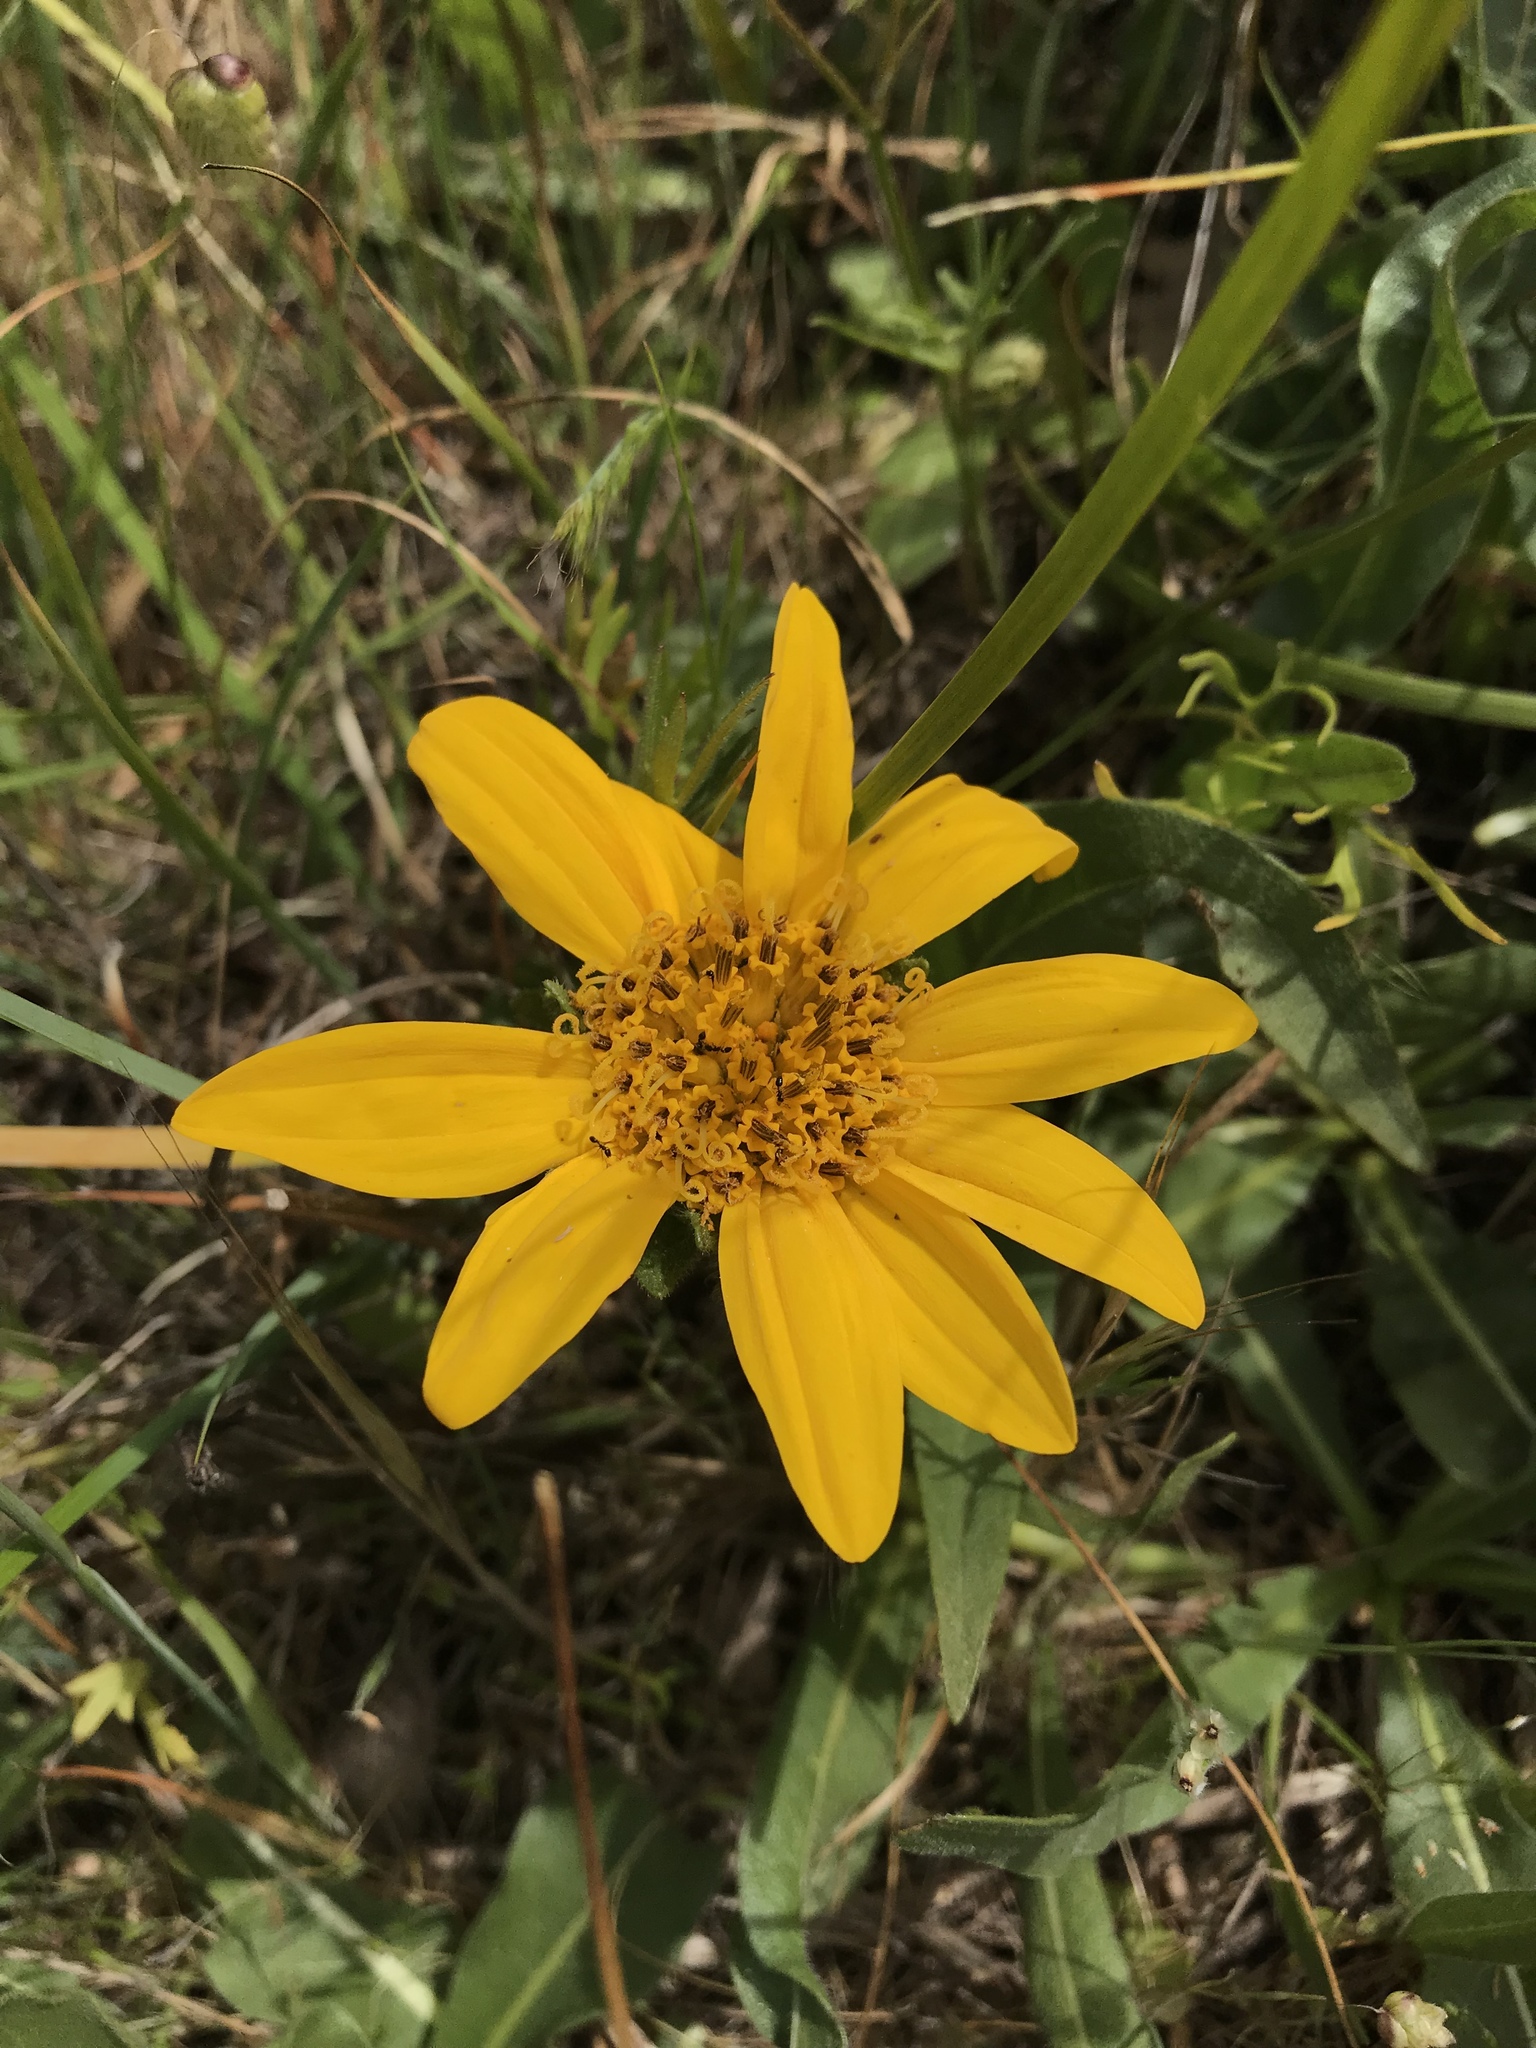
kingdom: Plantae
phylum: Tracheophyta
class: Magnoliopsida
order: Asterales
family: Asteraceae
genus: Wyethia
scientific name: Wyethia angustifolia
